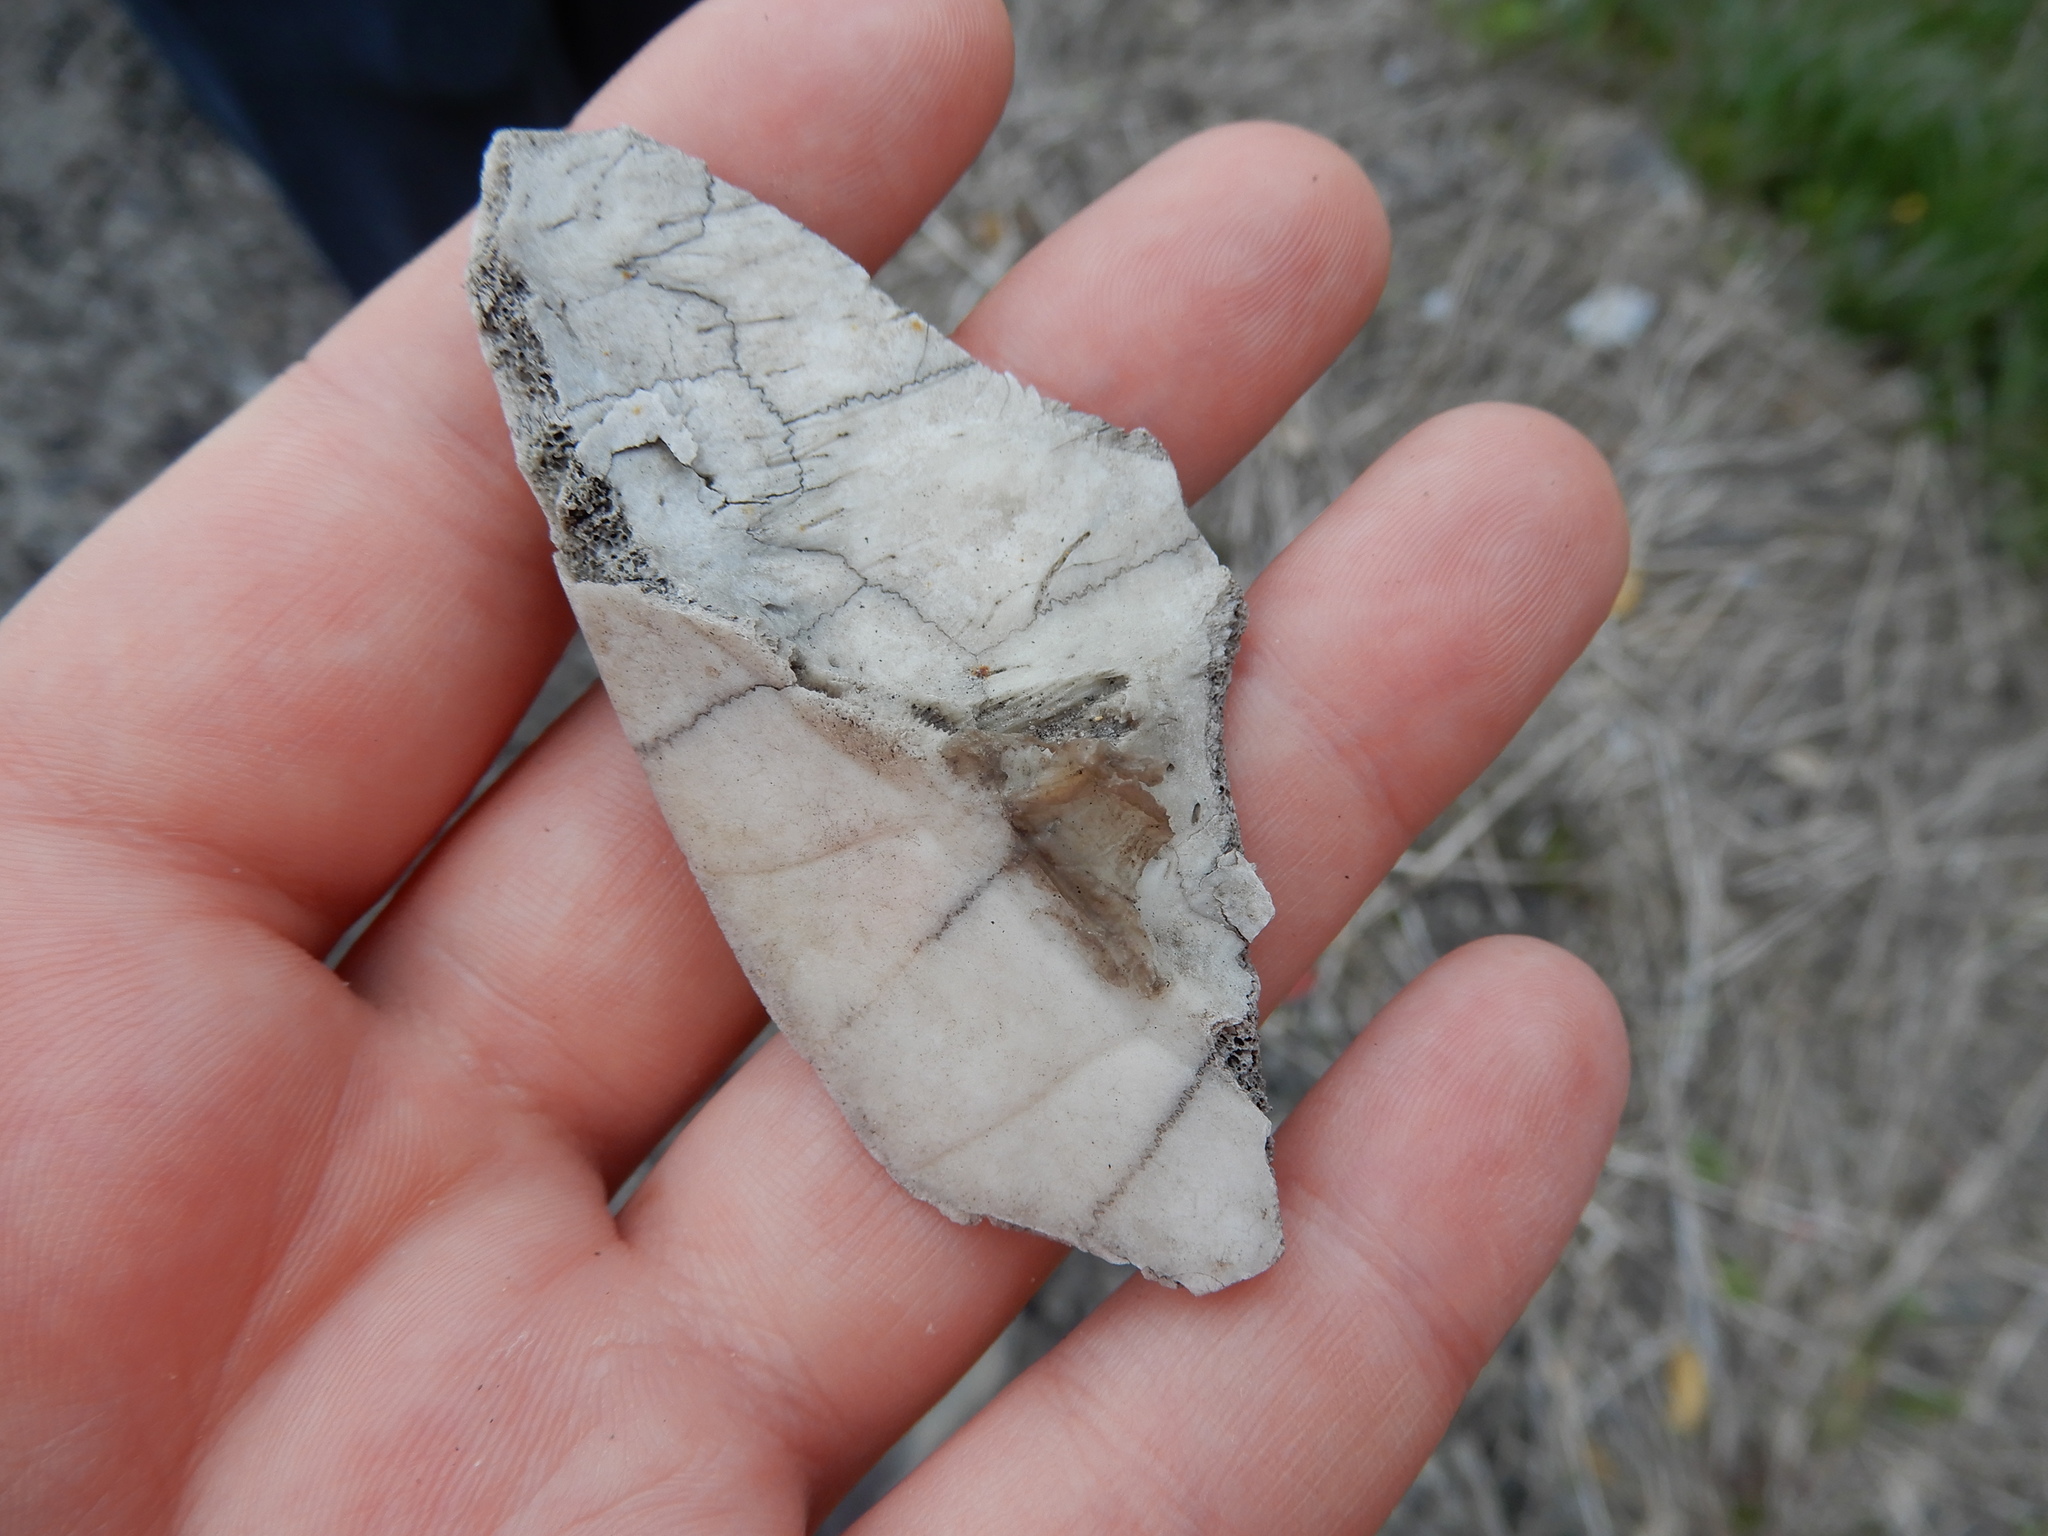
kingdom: Animalia
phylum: Chordata
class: Testudines
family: Emydidae
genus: Chrysemys
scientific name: Chrysemys picta
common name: Painted turtle
